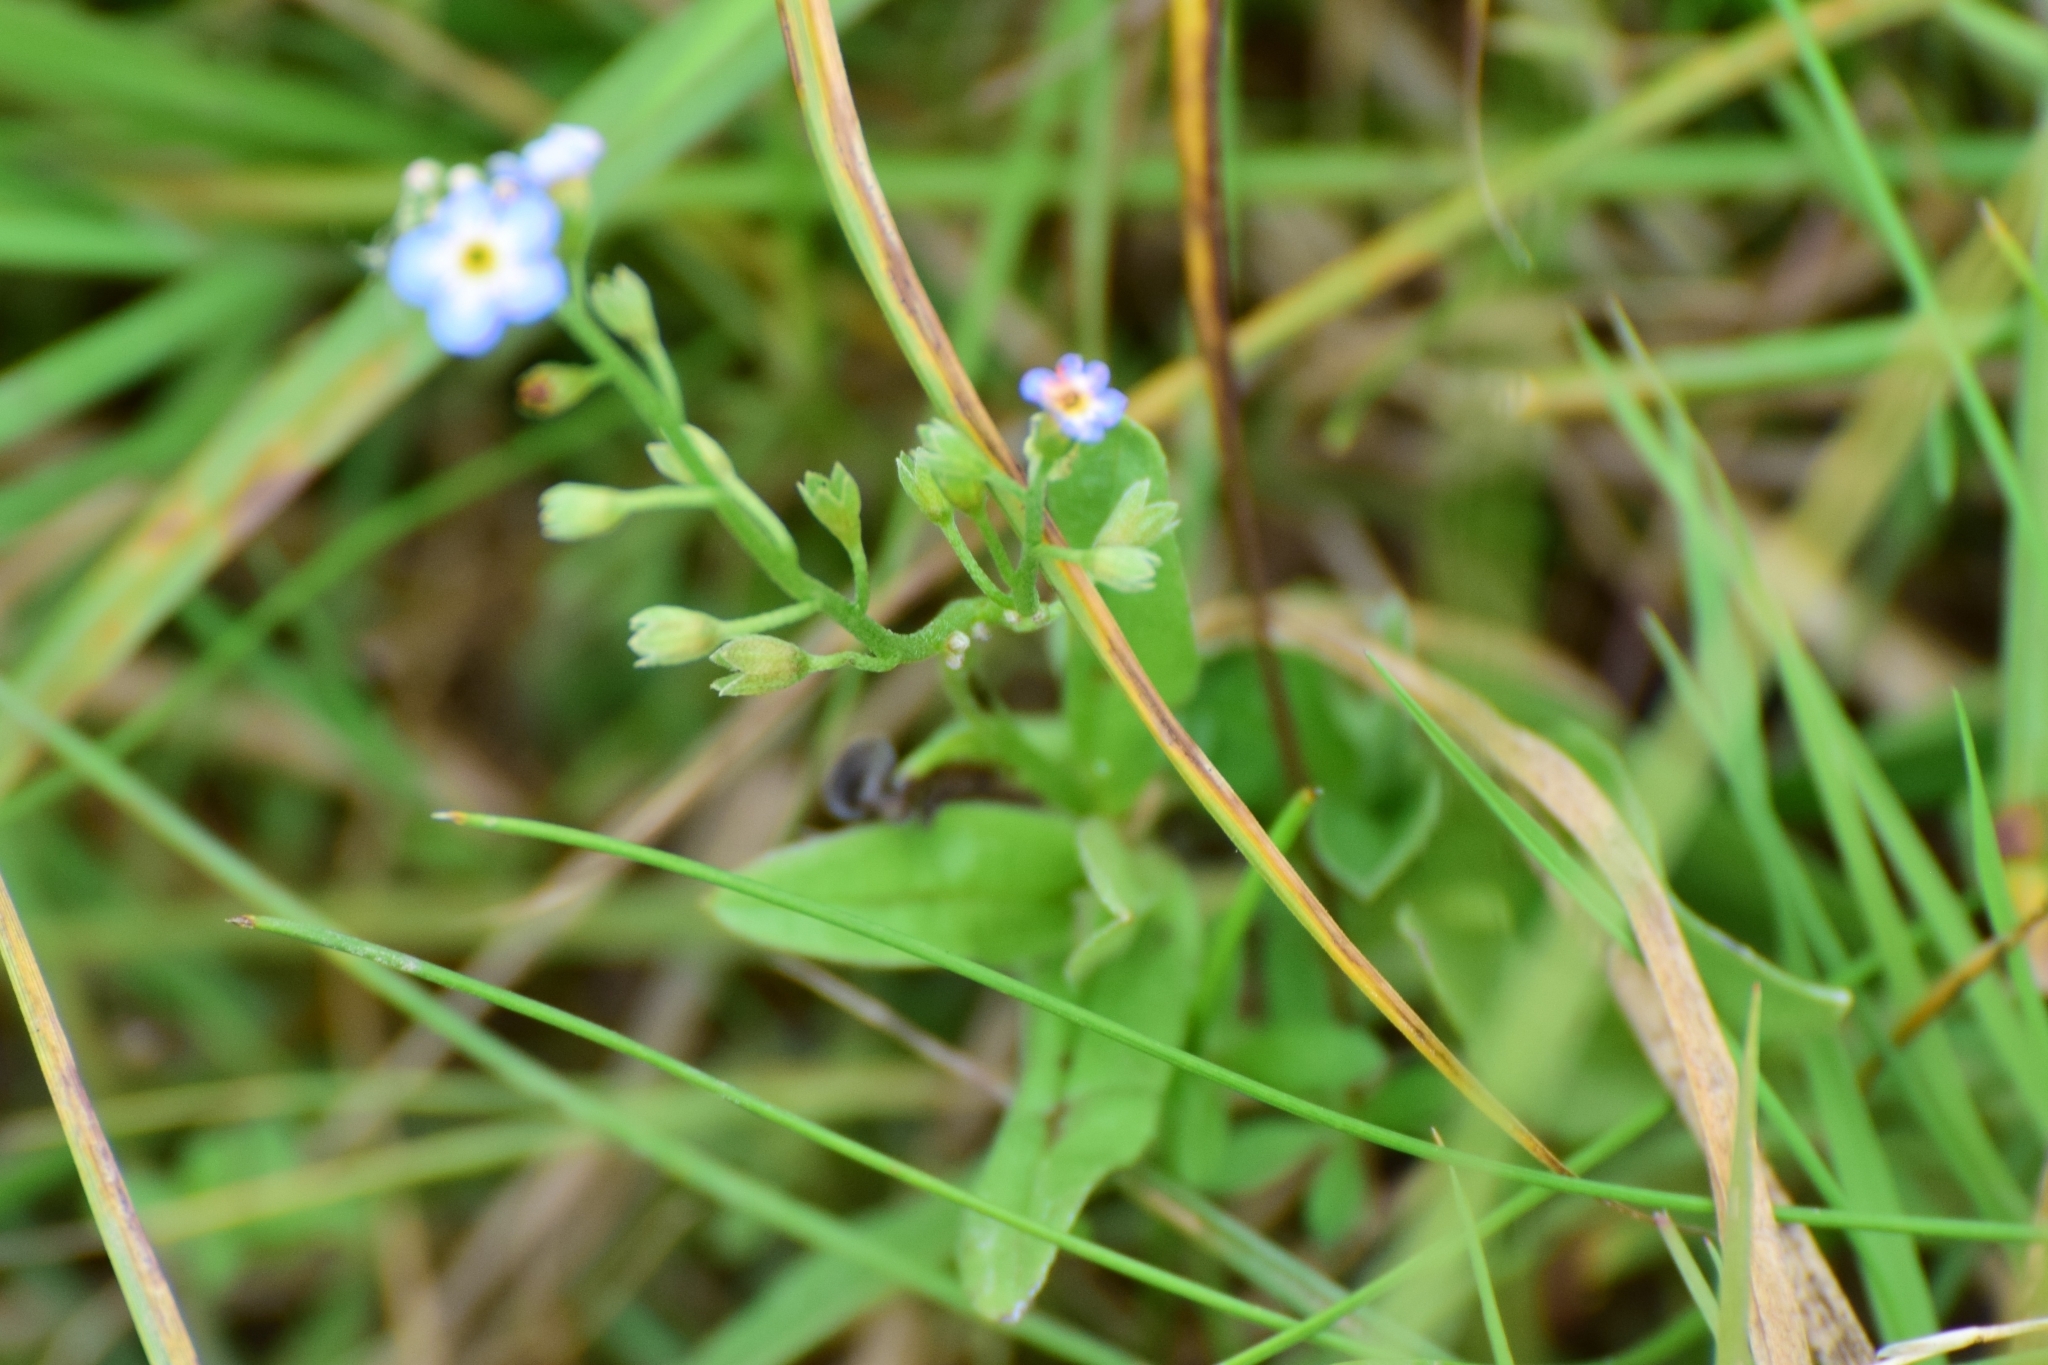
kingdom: Plantae
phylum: Tracheophyta
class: Magnoliopsida
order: Boraginales
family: Boraginaceae
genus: Myosotis
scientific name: Myosotis scorpioides
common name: Water forget-me-not
